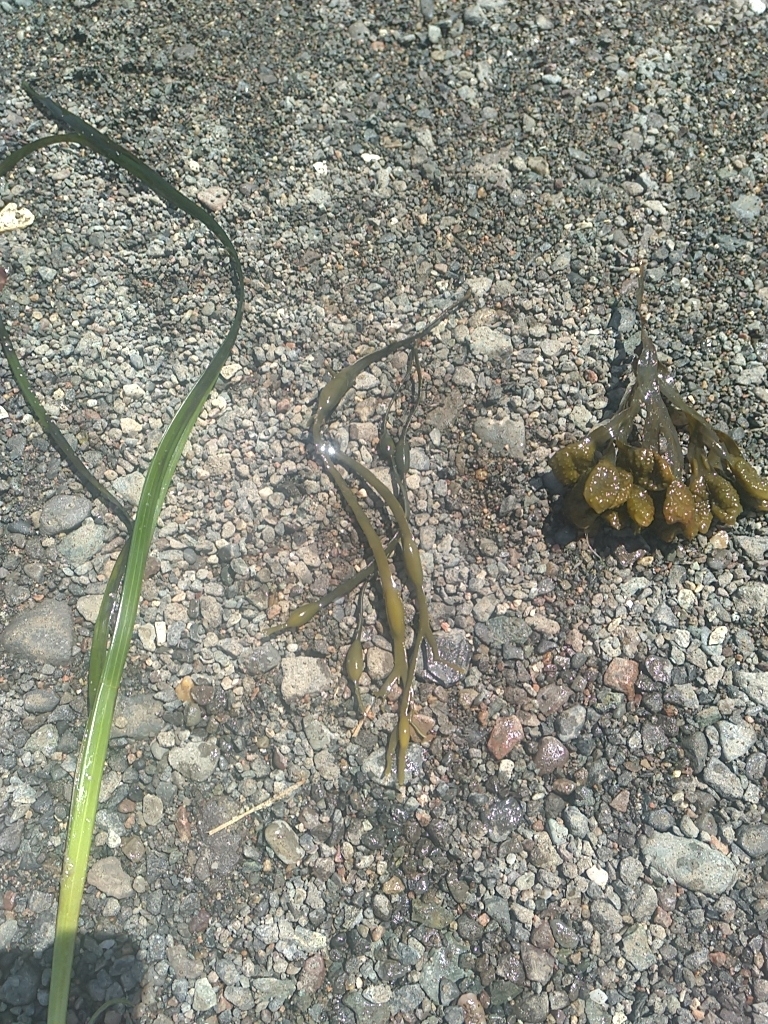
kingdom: Chromista
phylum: Ochrophyta
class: Phaeophyceae
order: Fucales
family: Fucaceae
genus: Ascophyllum
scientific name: Ascophyllum nodosum
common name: Knotted wrack
